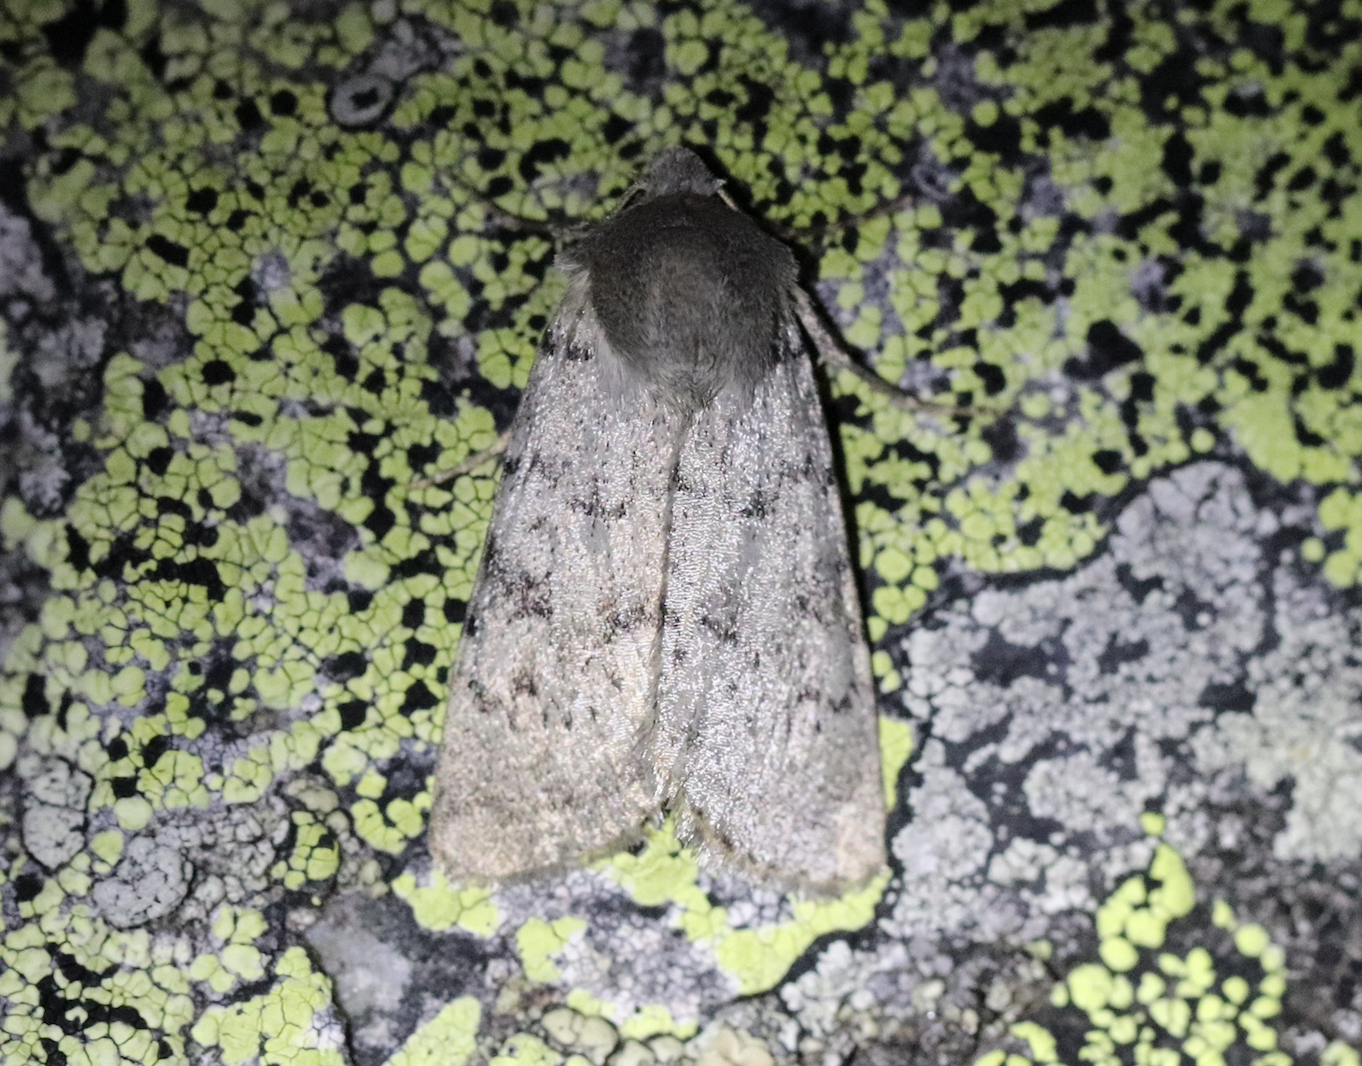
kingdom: Animalia
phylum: Arthropoda
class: Insecta
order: Lepidoptera
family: Noctuidae
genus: Epipsilia
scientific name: Epipsilia grisescens
